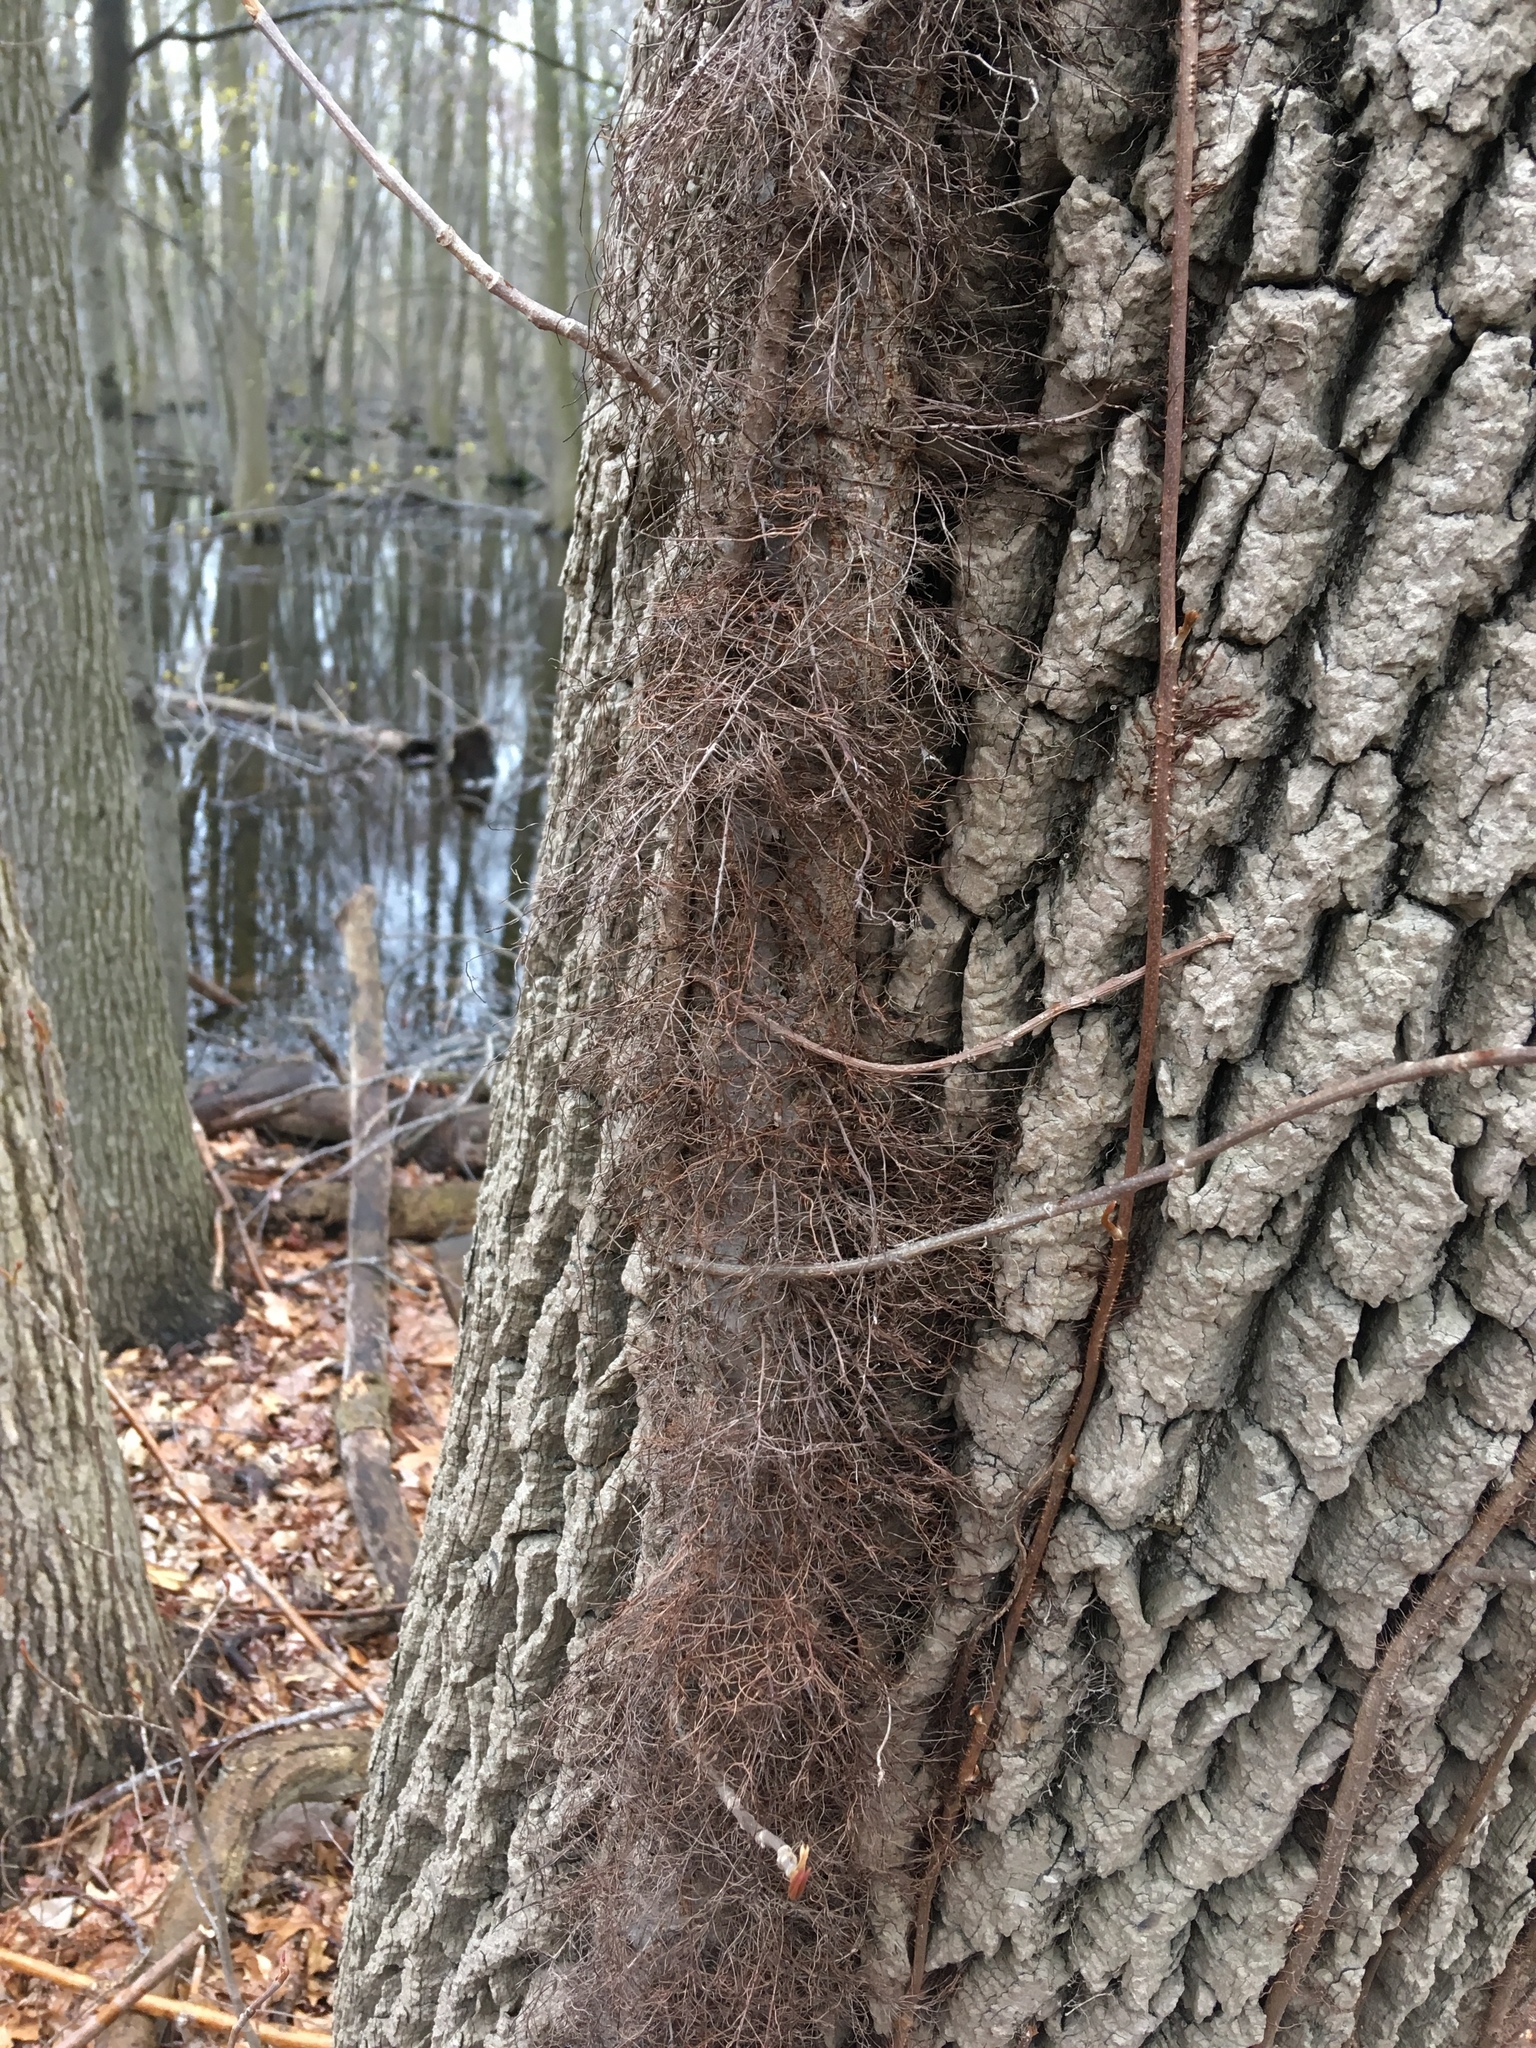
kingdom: Plantae
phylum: Tracheophyta
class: Magnoliopsida
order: Sapindales
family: Anacardiaceae
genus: Toxicodendron
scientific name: Toxicodendron radicans
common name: Poison ivy
